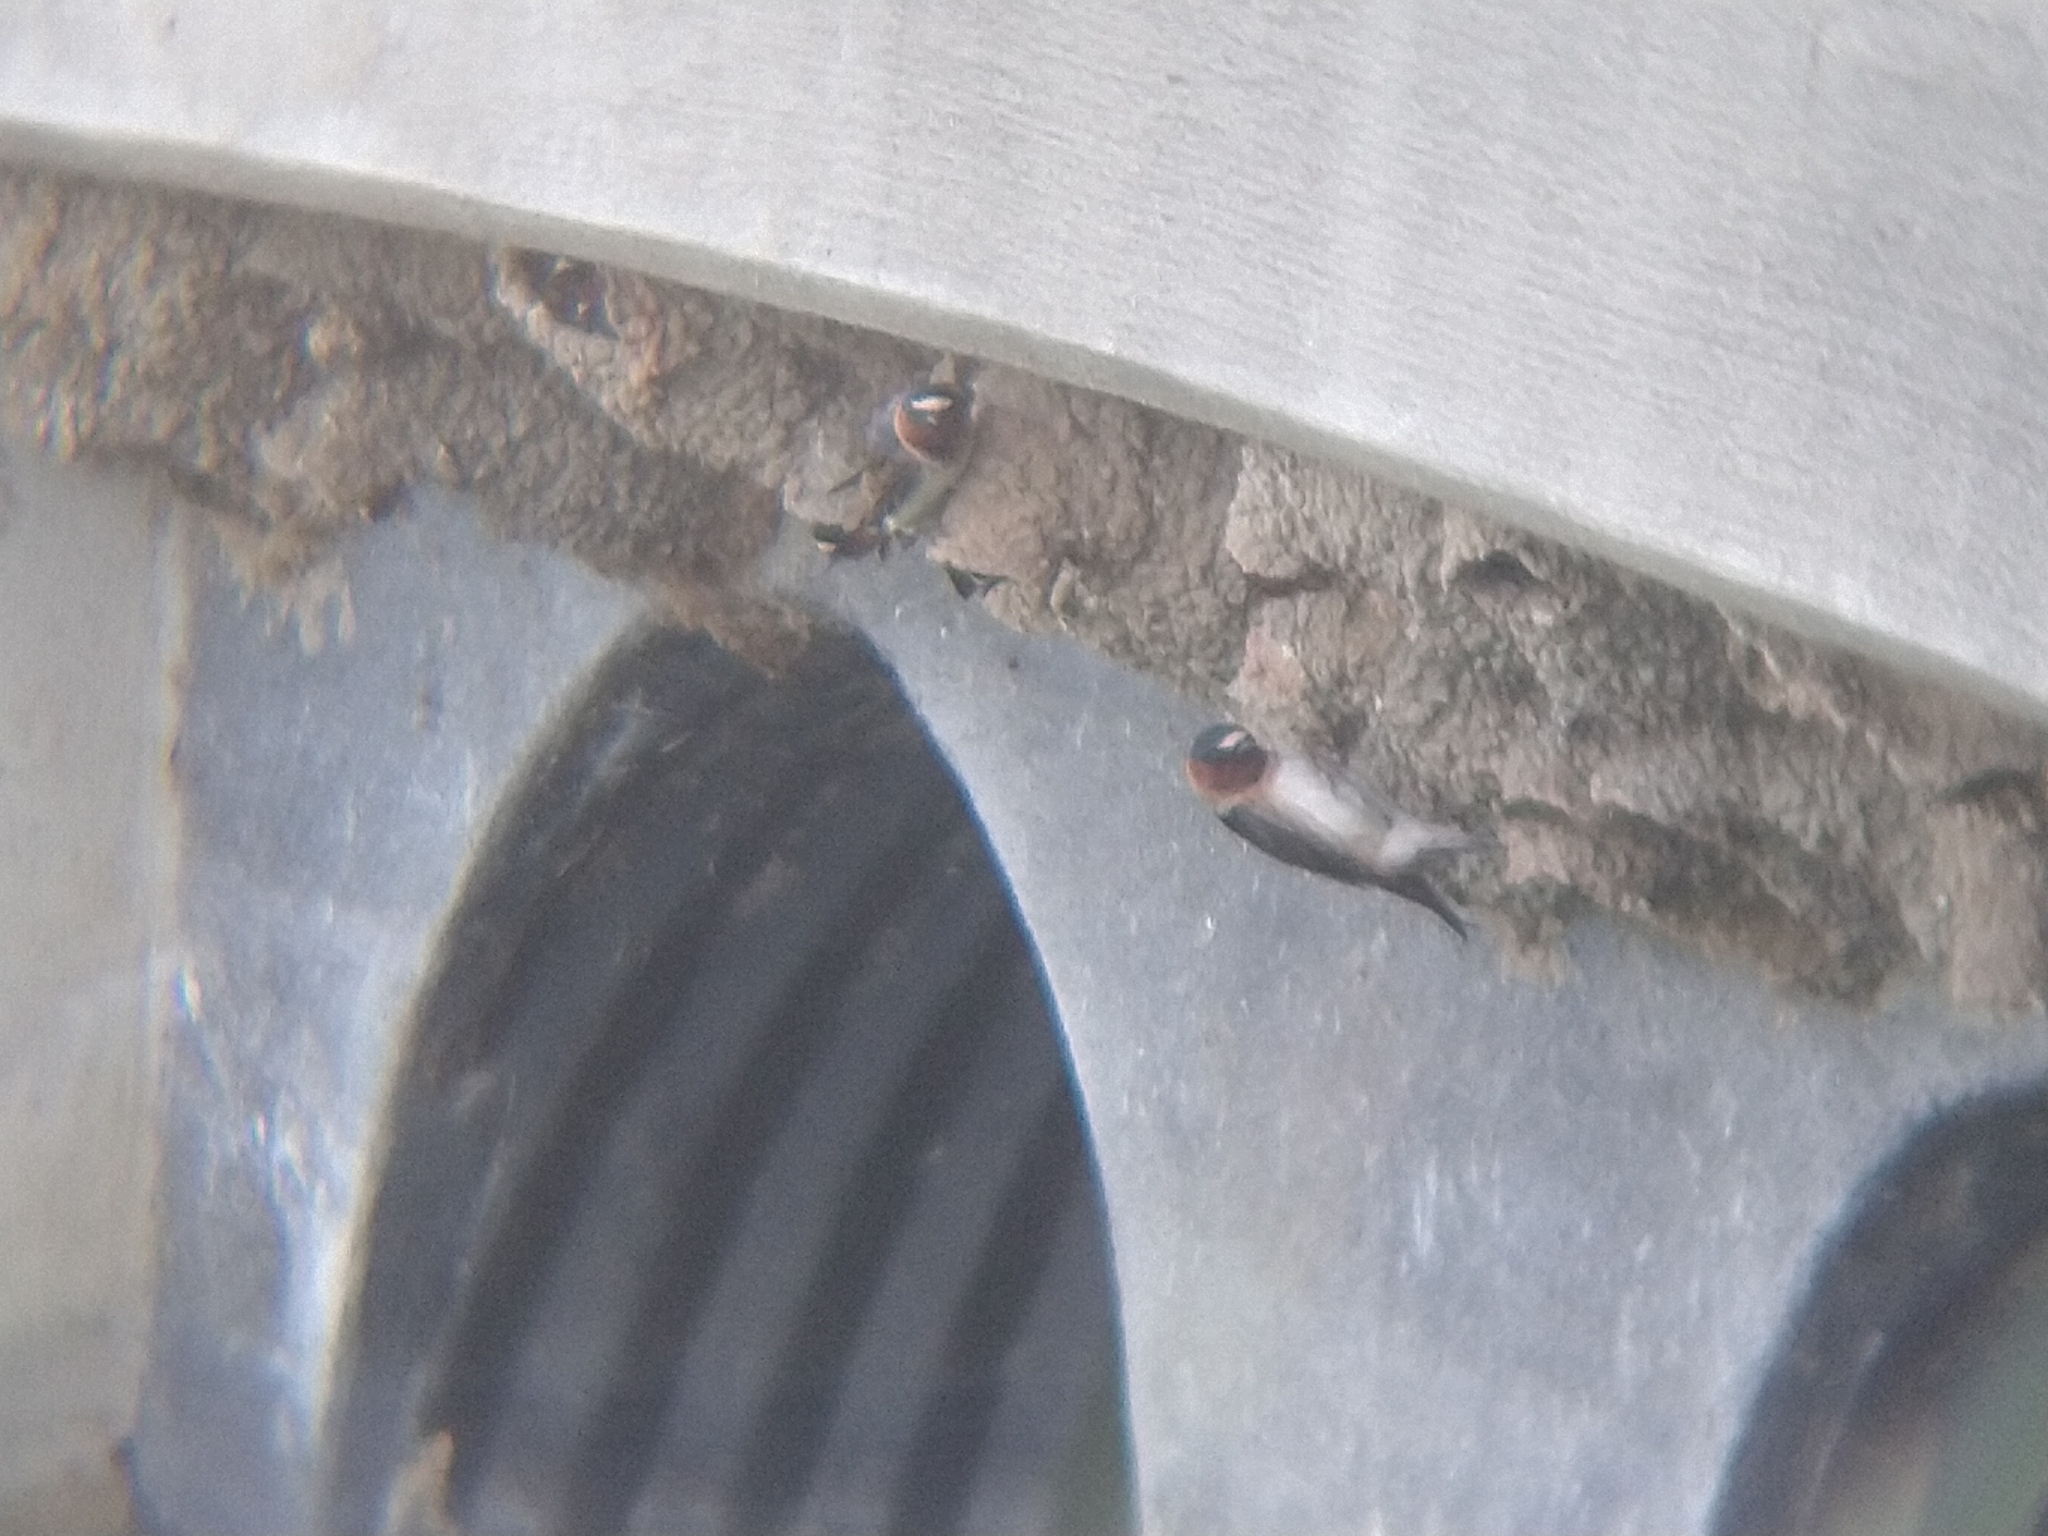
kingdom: Animalia
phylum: Chordata
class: Aves
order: Passeriformes
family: Hirundinidae
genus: Petrochelidon
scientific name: Petrochelidon pyrrhonota
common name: American cliff swallow
